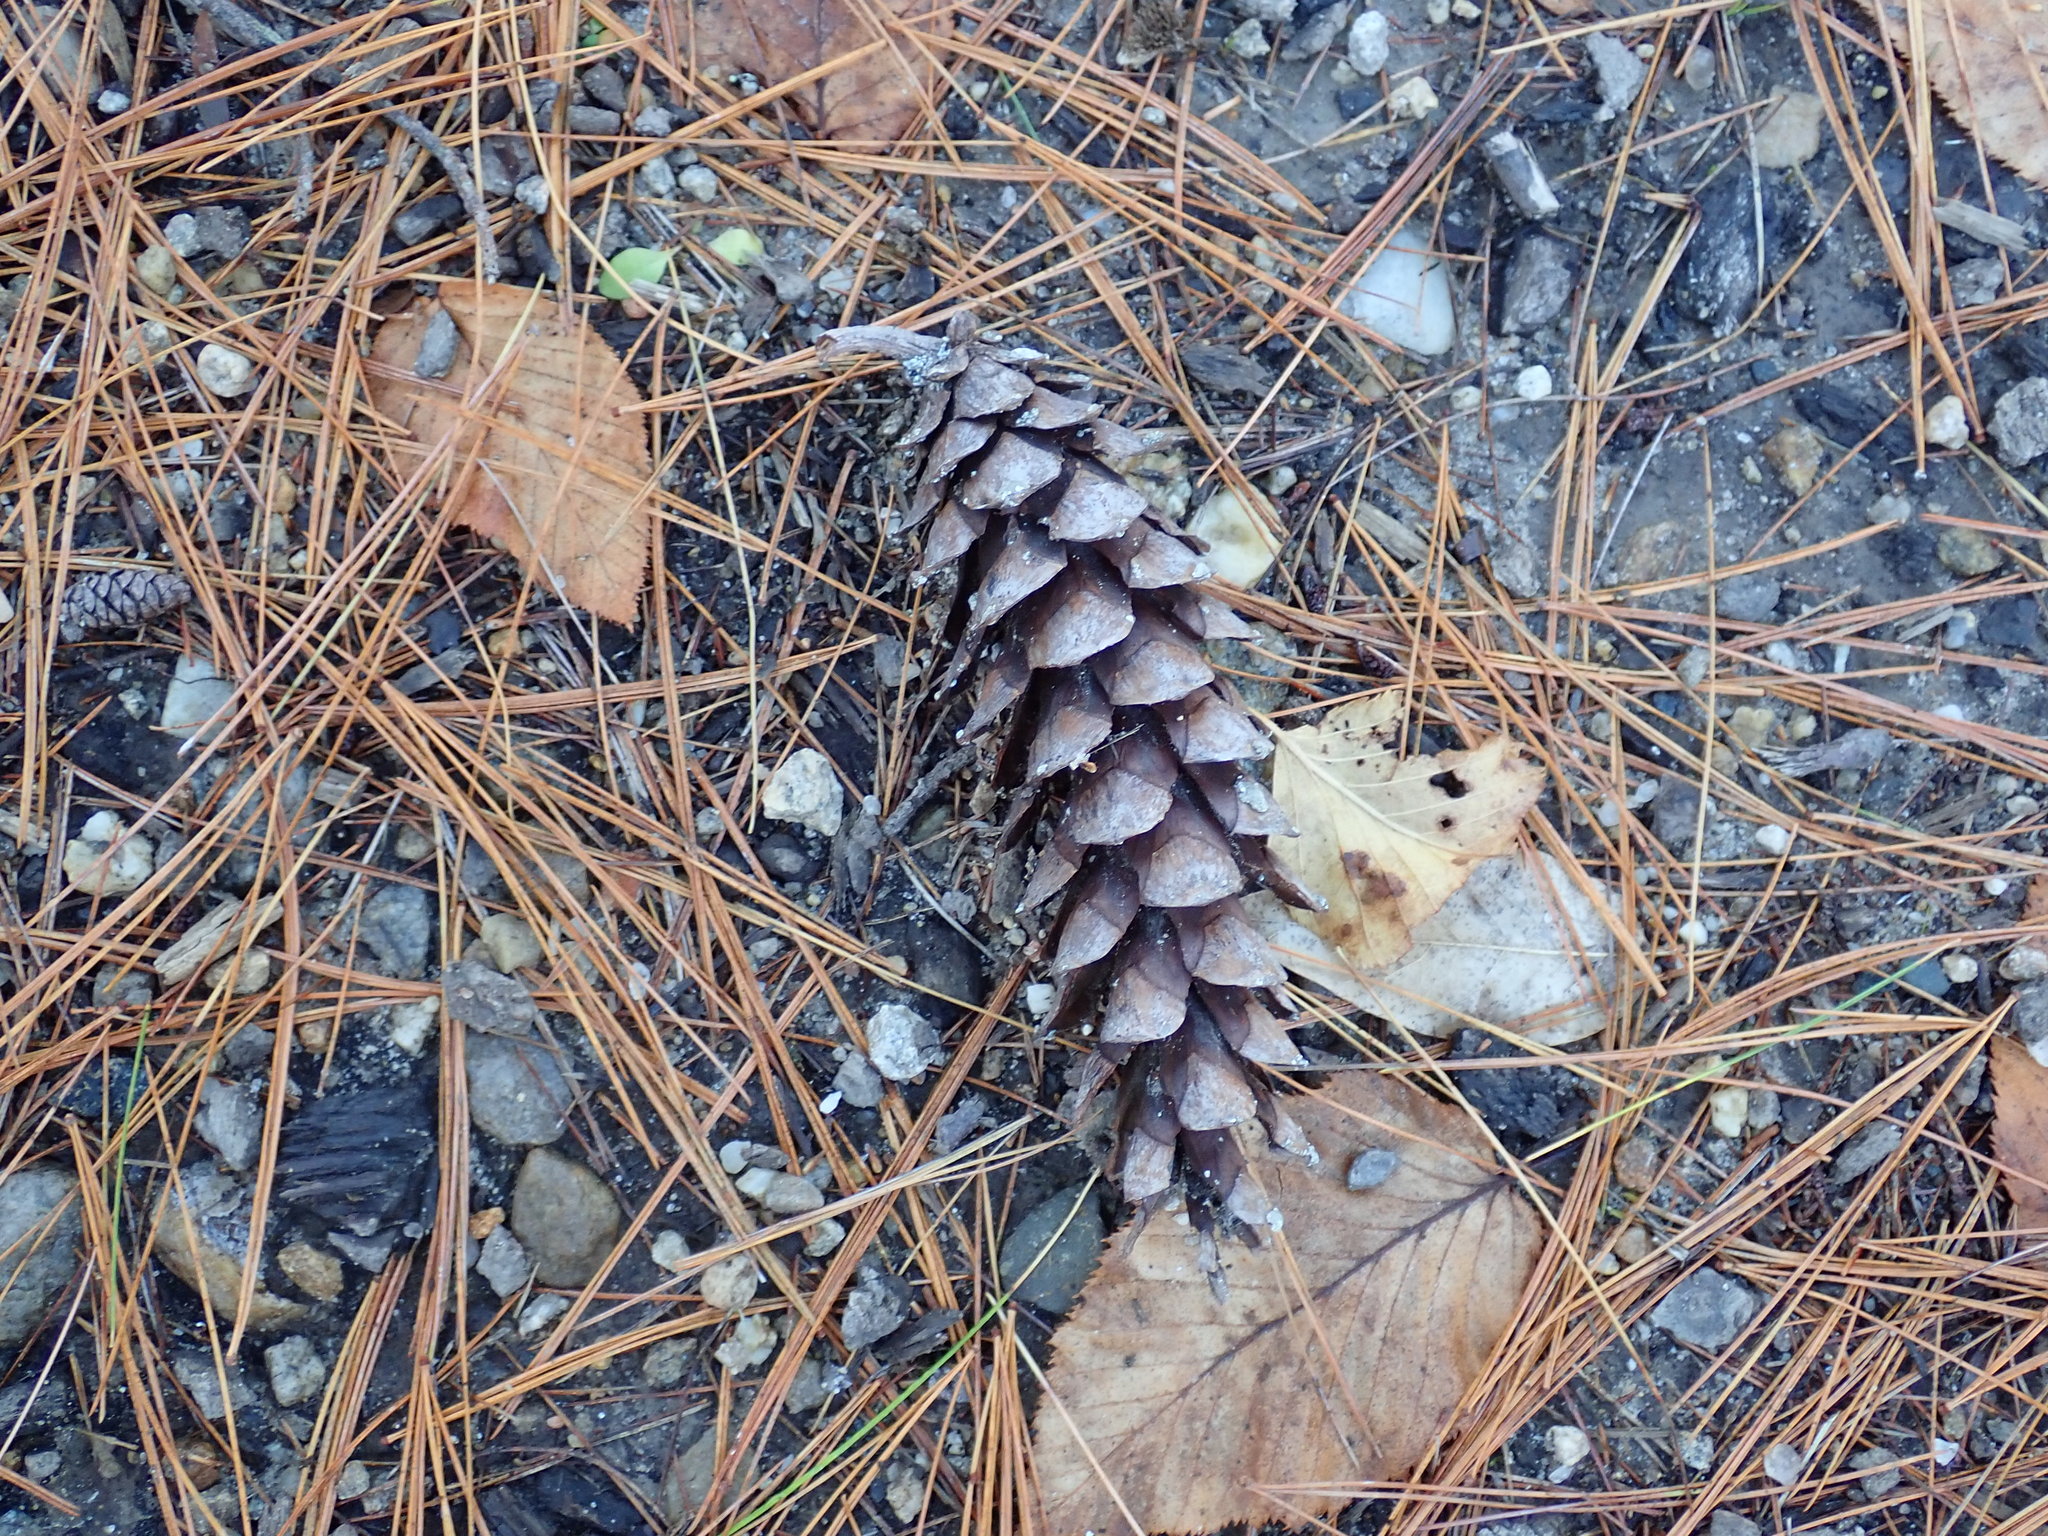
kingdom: Plantae
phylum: Tracheophyta
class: Pinopsida
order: Pinales
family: Pinaceae
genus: Pinus
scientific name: Pinus strobus
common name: Weymouth pine
